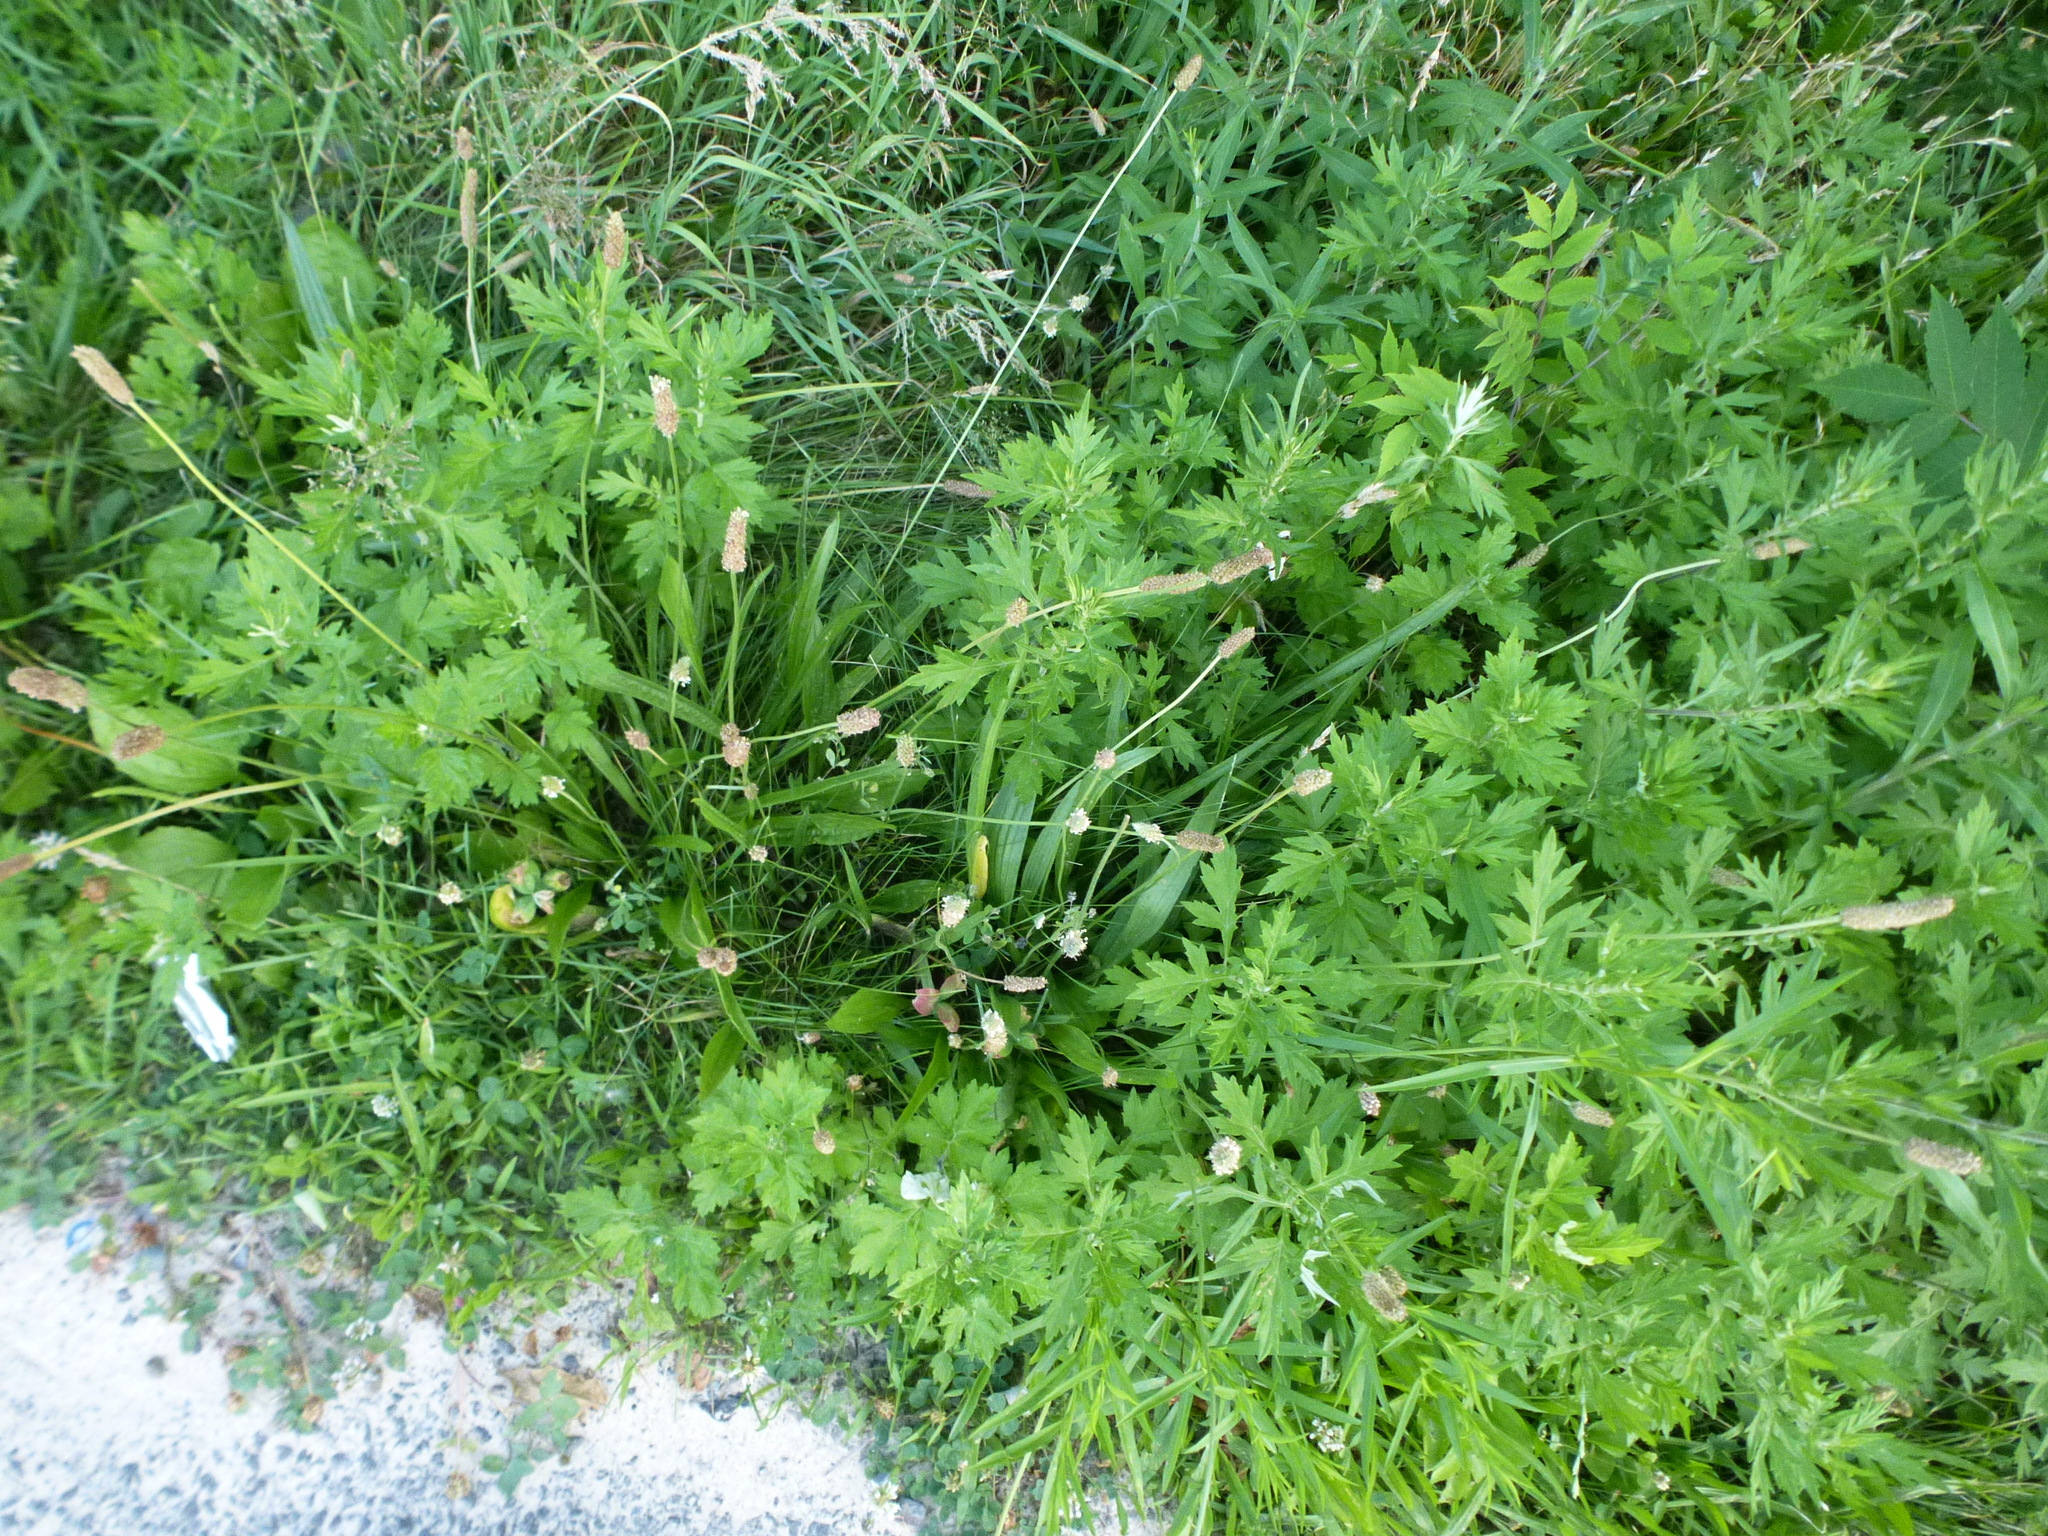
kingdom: Plantae
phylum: Tracheophyta
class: Magnoliopsida
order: Lamiales
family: Plantaginaceae
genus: Plantago
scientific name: Plantago lanceolata
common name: Ribwort plantain
